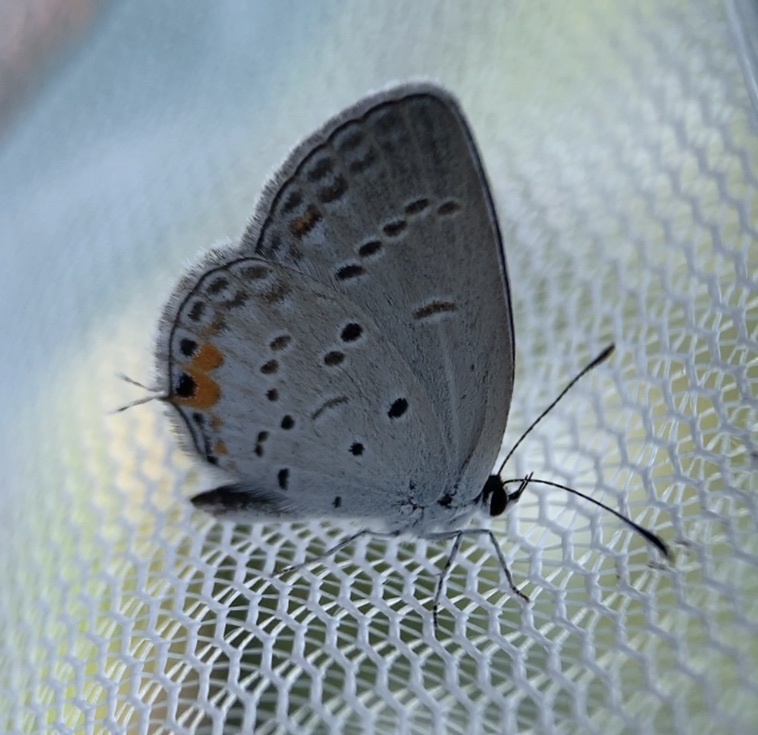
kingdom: Animalia
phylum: Arthropoda
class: Insecta
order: Lepidoptera
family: Lycaenidae
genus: Elkalyce
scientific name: Elkalyce comyntas
